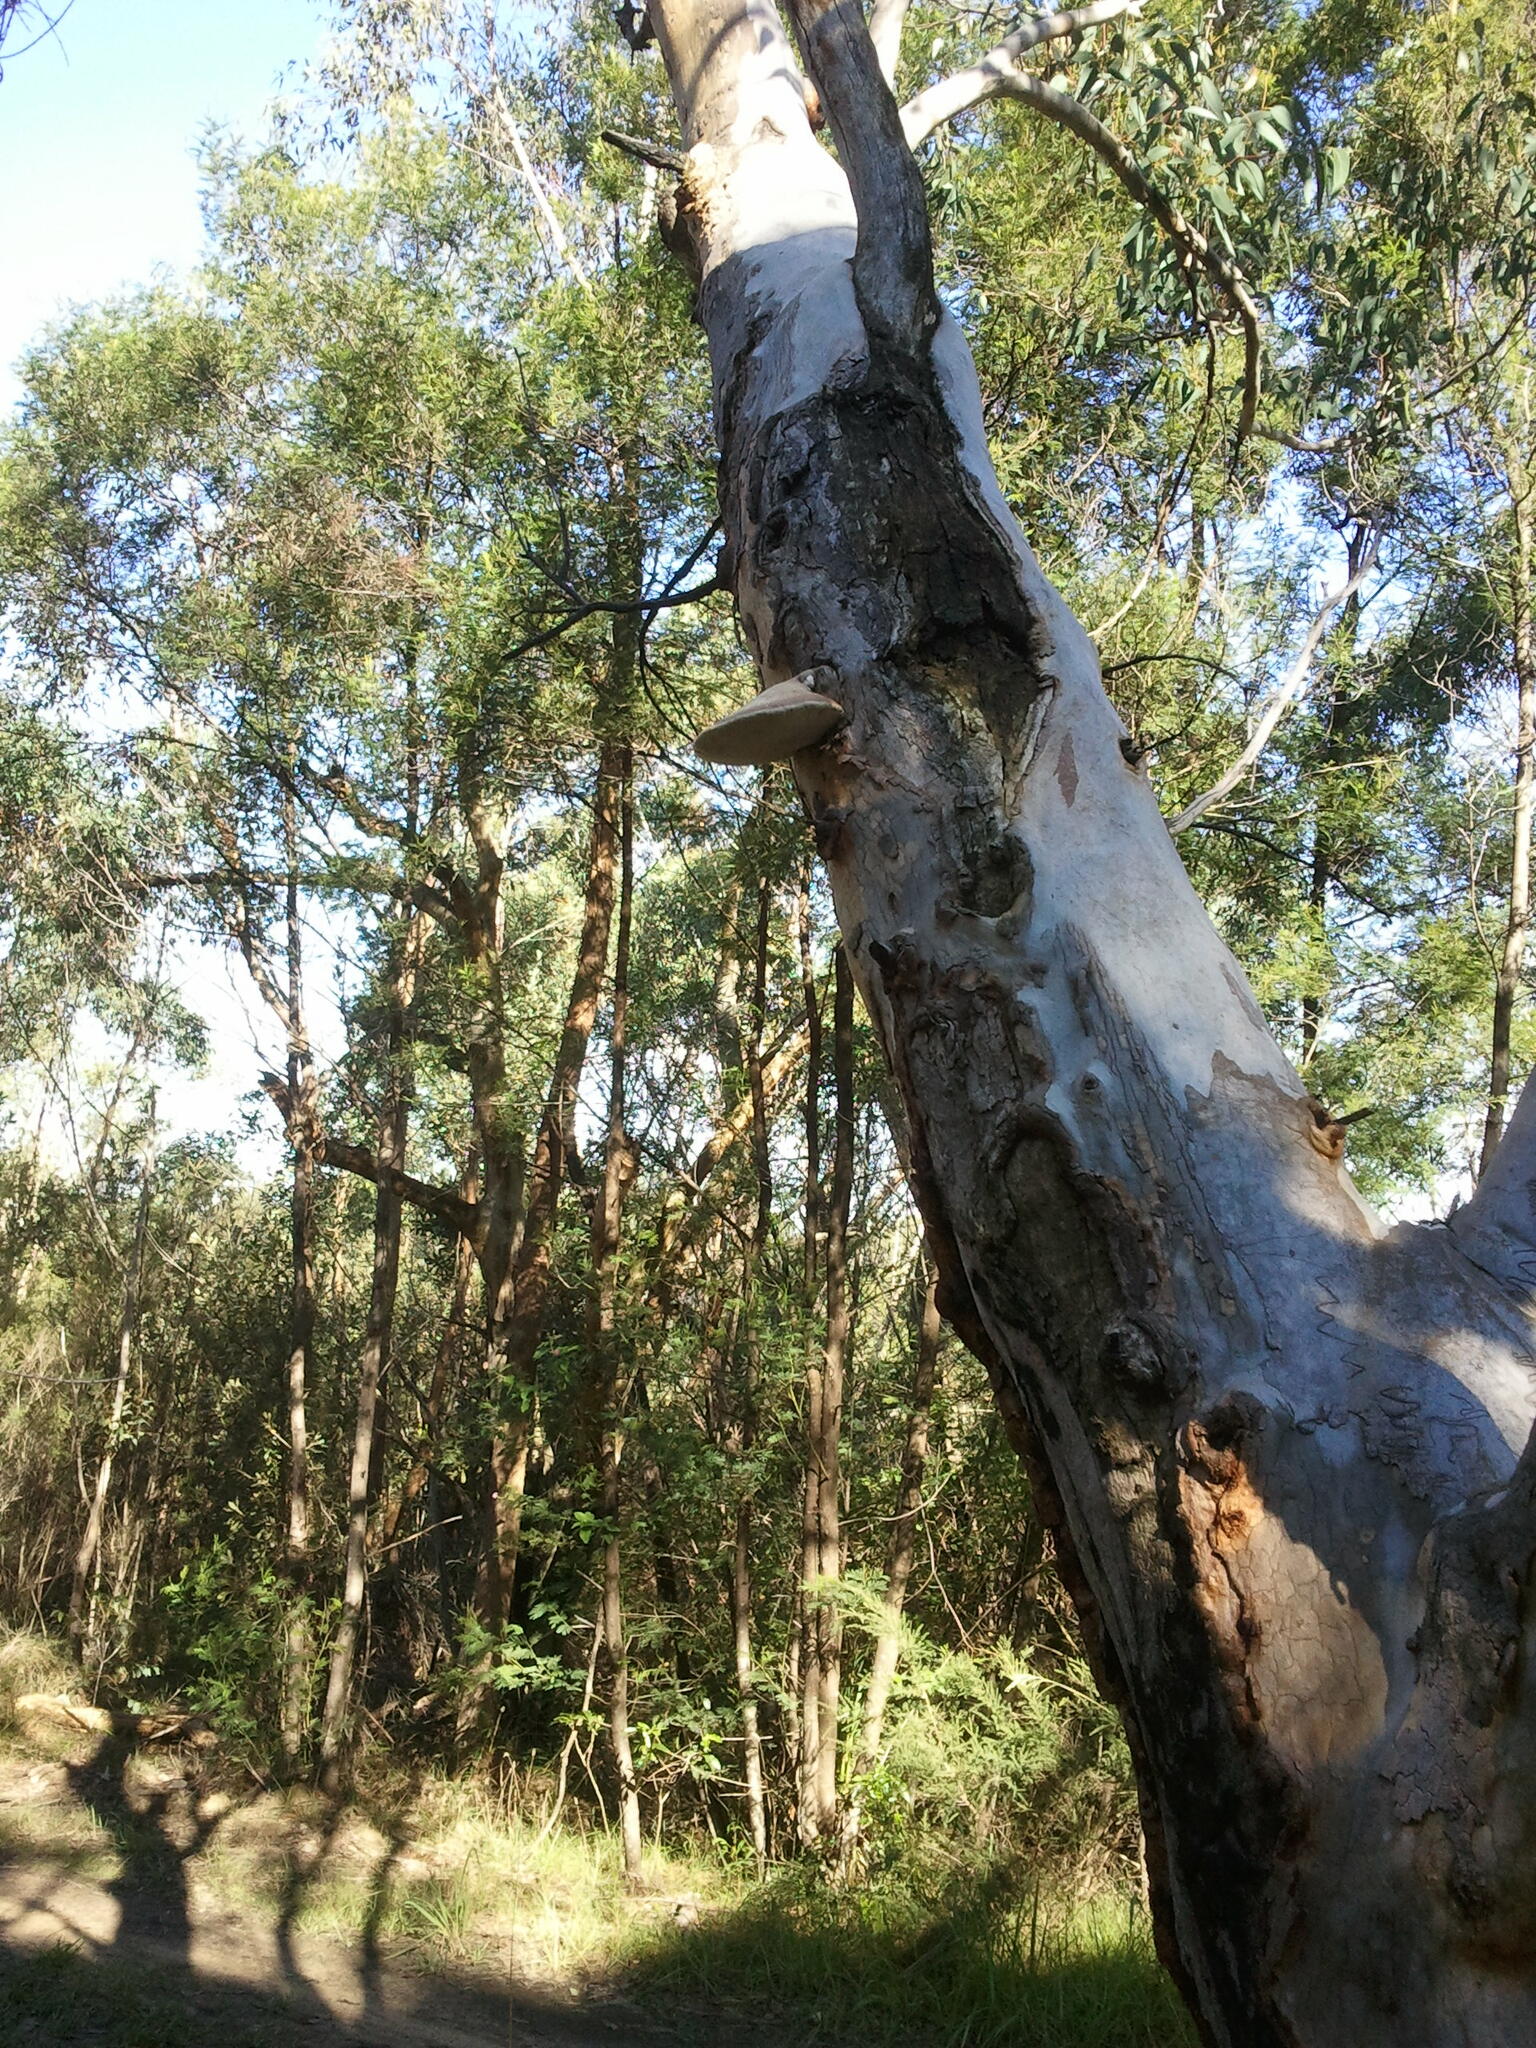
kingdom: Fungi
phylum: Basidiomycota
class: Agaricomycetes
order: Polyporales
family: Laetiporaceae
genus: Laetiporus
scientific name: Laetiporus portentosus
